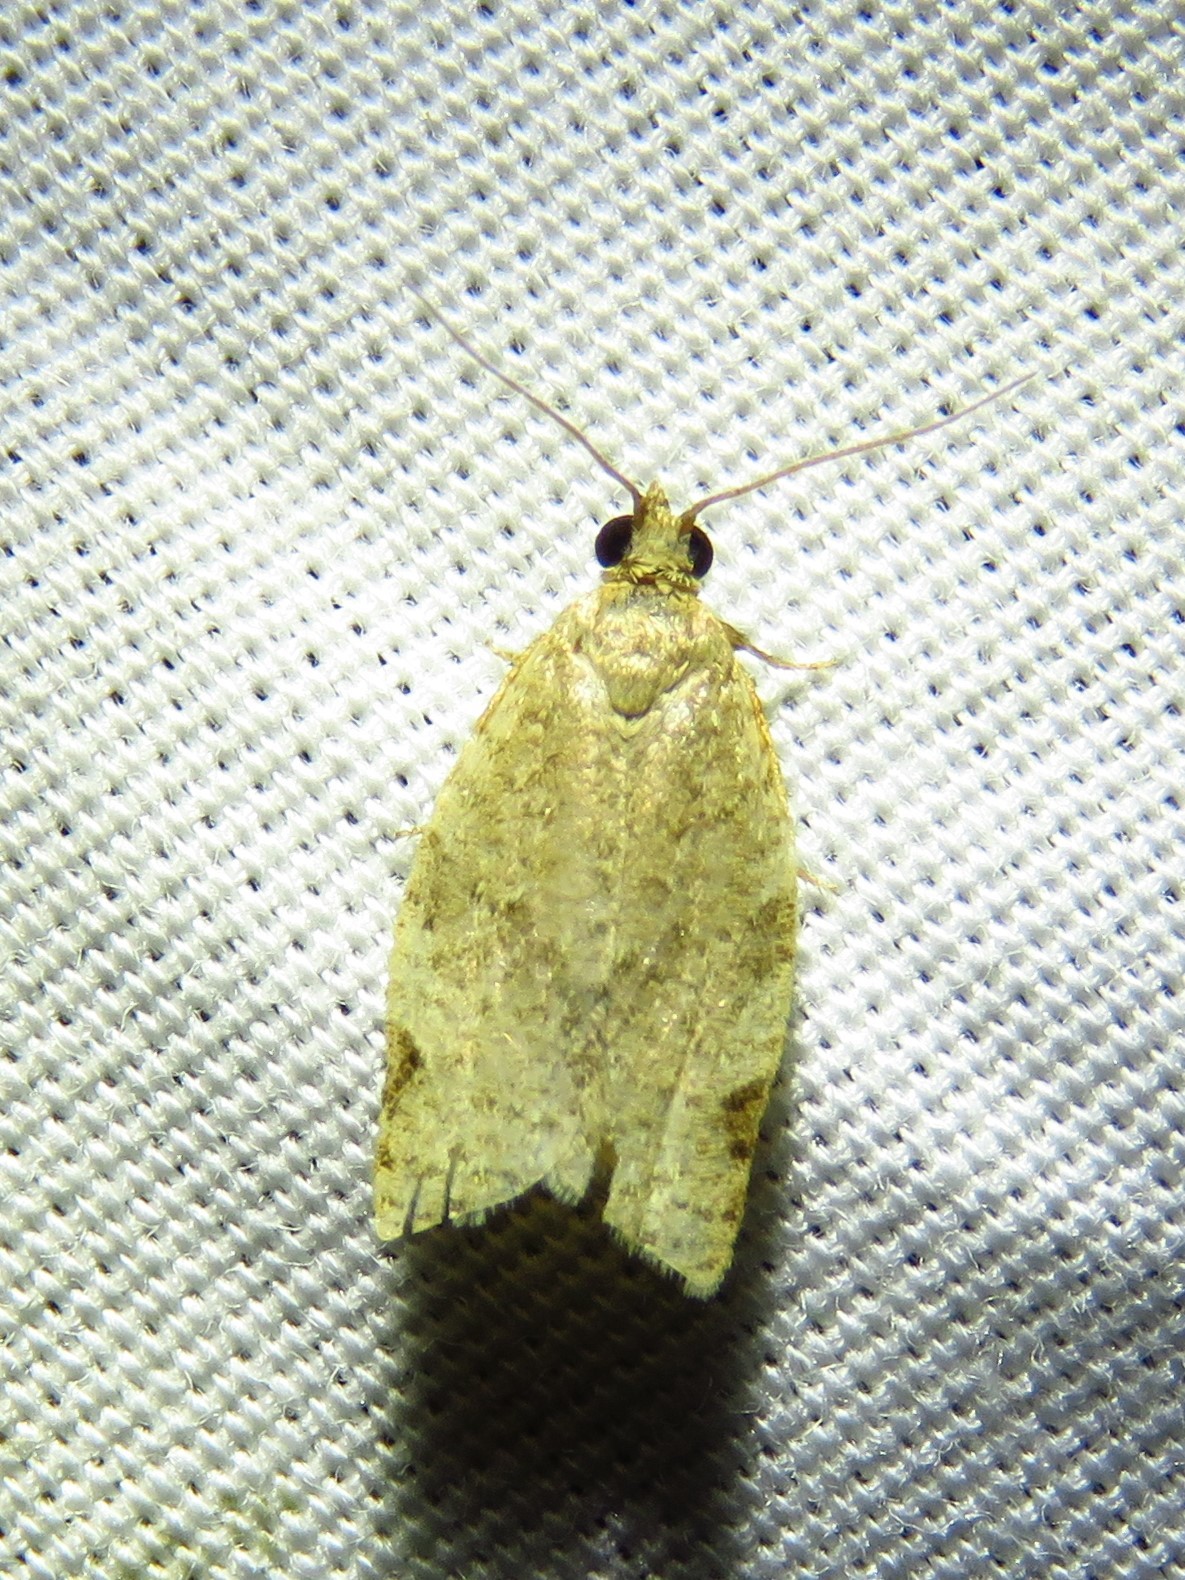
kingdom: Animalia
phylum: Arthropoda
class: Insecta
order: Lepidoptera
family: Tortricidae
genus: Clepsis
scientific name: Clepsis virescana
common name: Greenish apple moth
